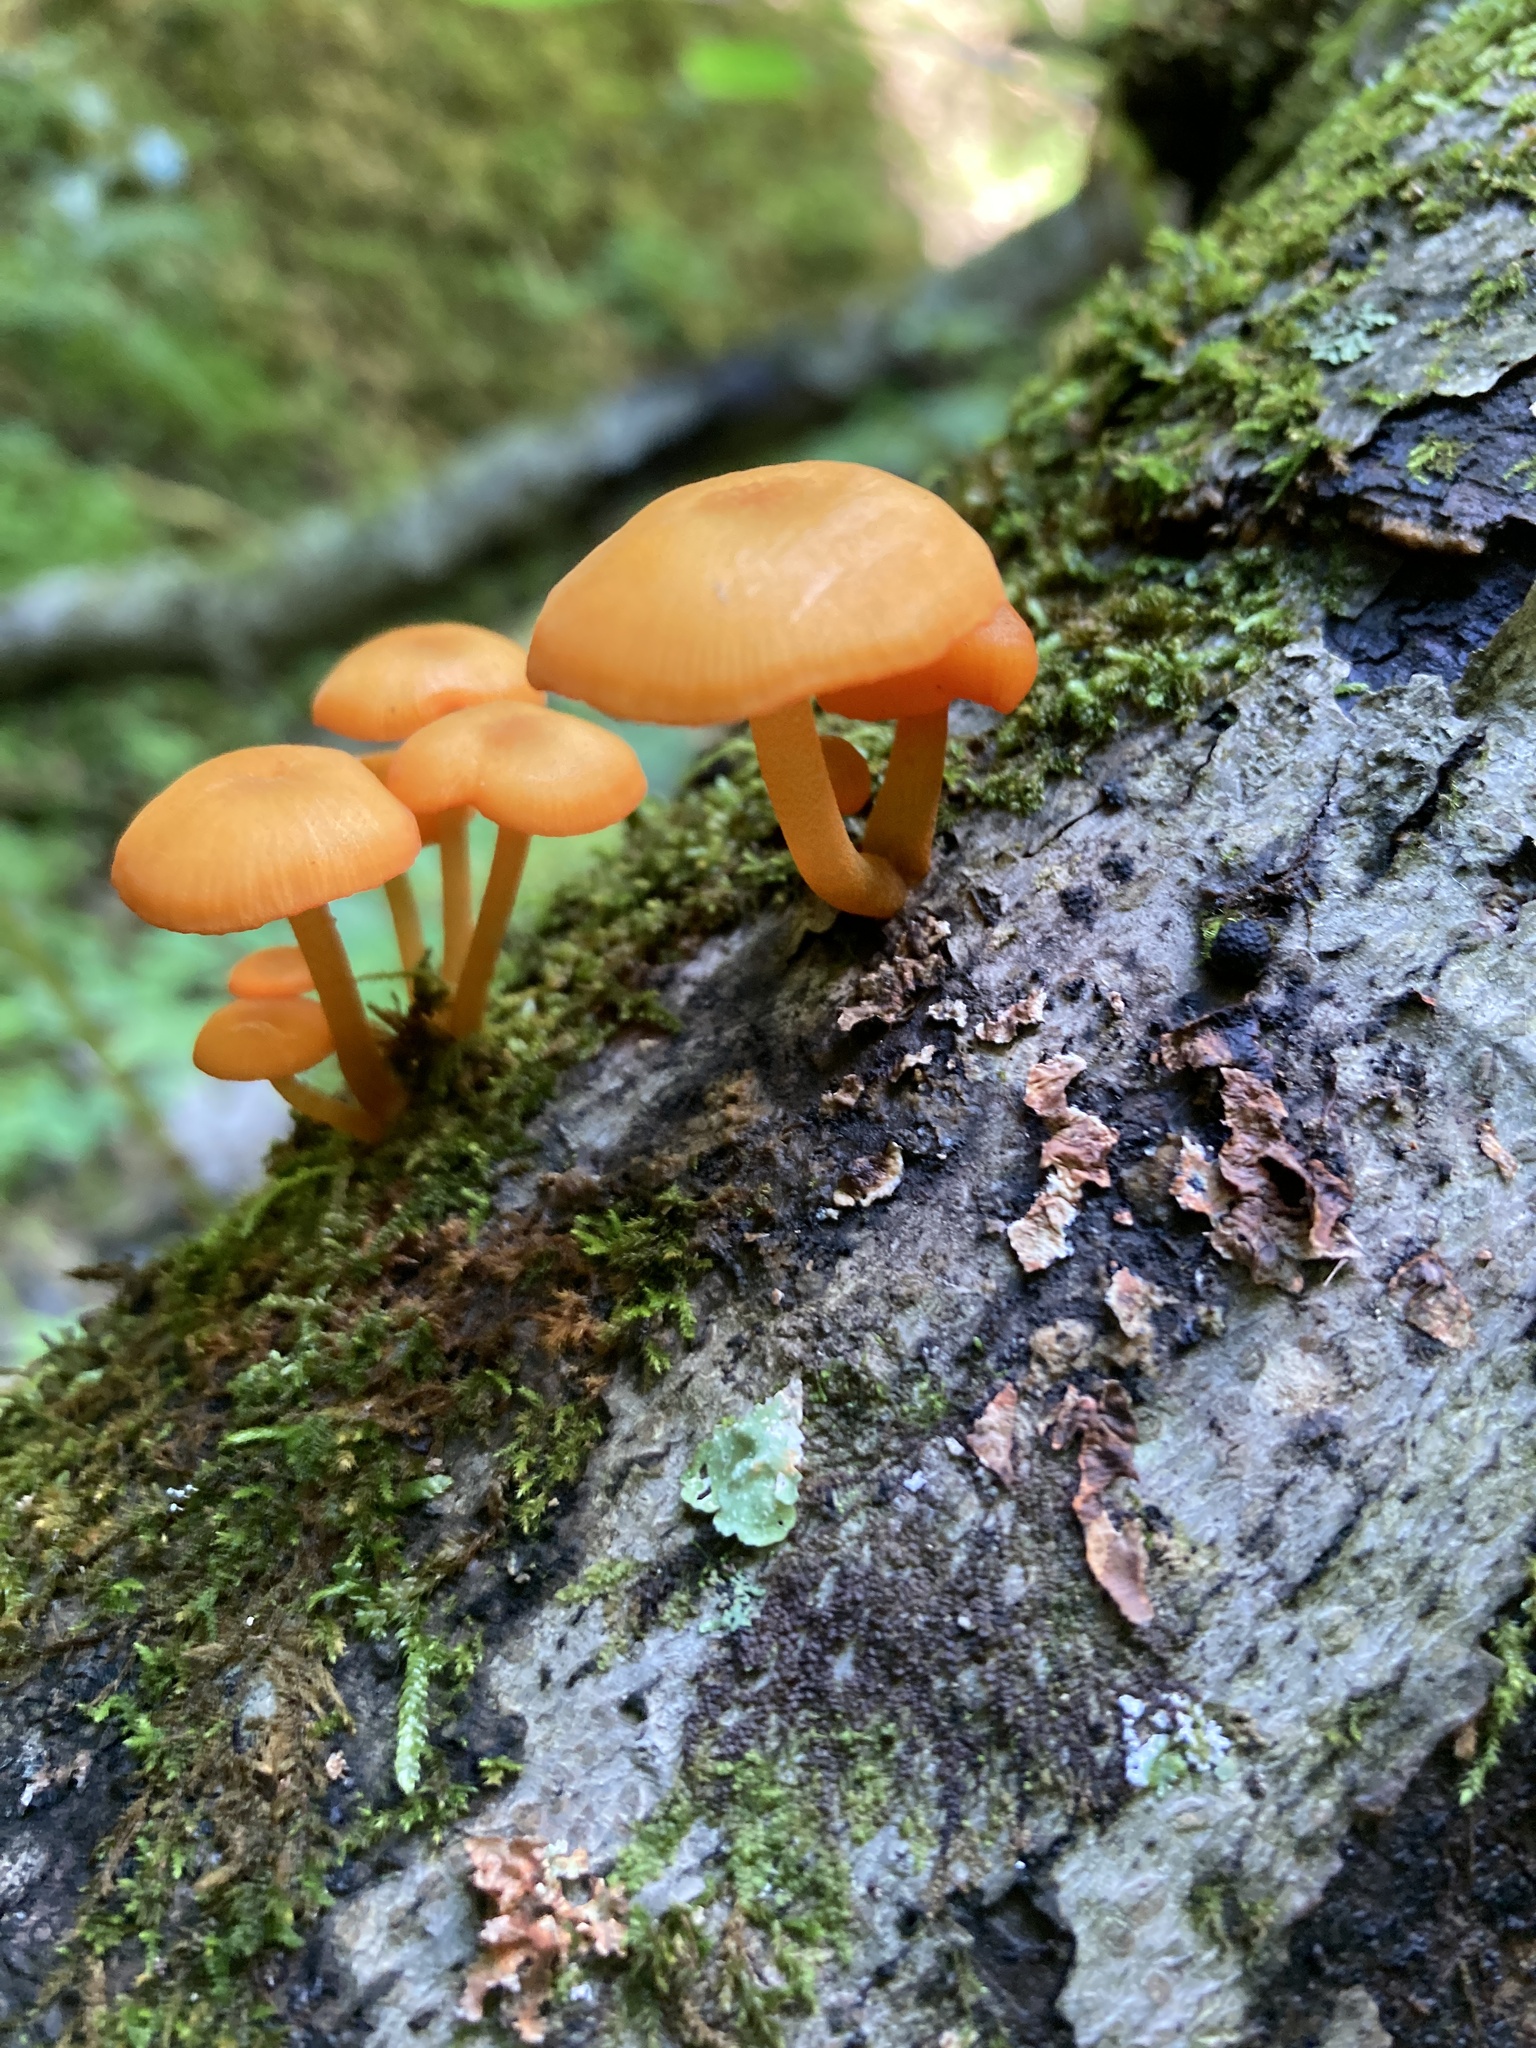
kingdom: Fungi
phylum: Basidiomycota
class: Agaricomycetes
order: Agaricales
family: Mycenaceae
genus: Mycena
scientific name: Mycena leaiana
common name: Orange mycena
